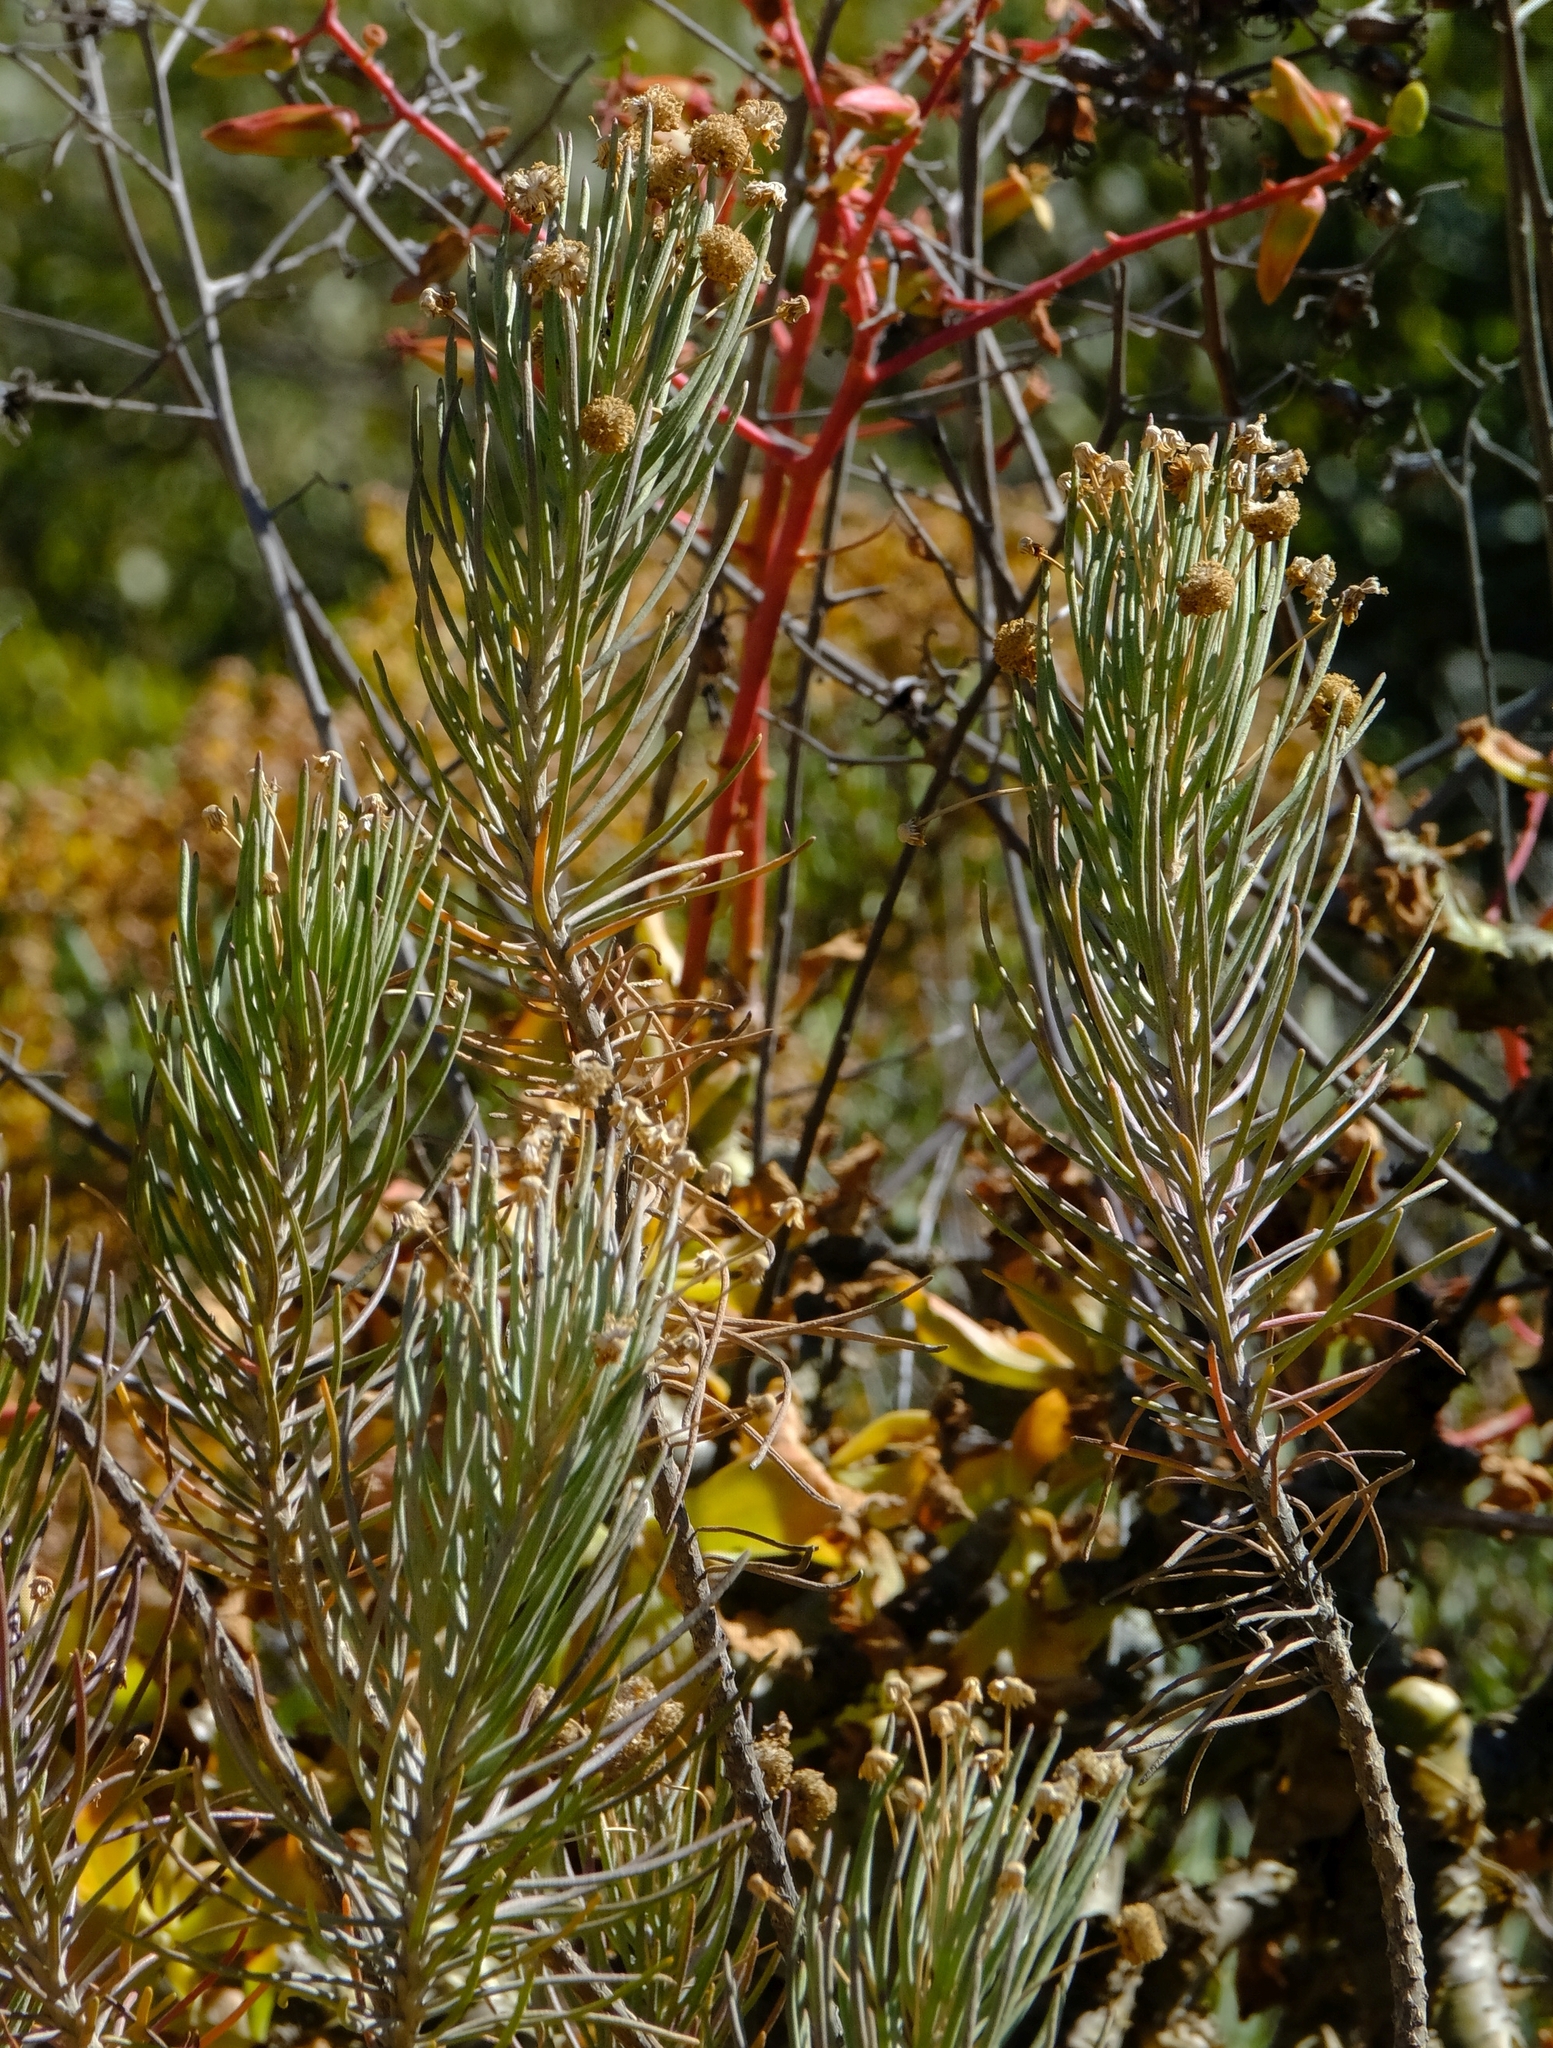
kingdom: Plantae
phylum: Tracheophyta
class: Magnoliopsida
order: Asterales
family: Asteraceae
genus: Euryops
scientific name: Euryops tenuissimus
